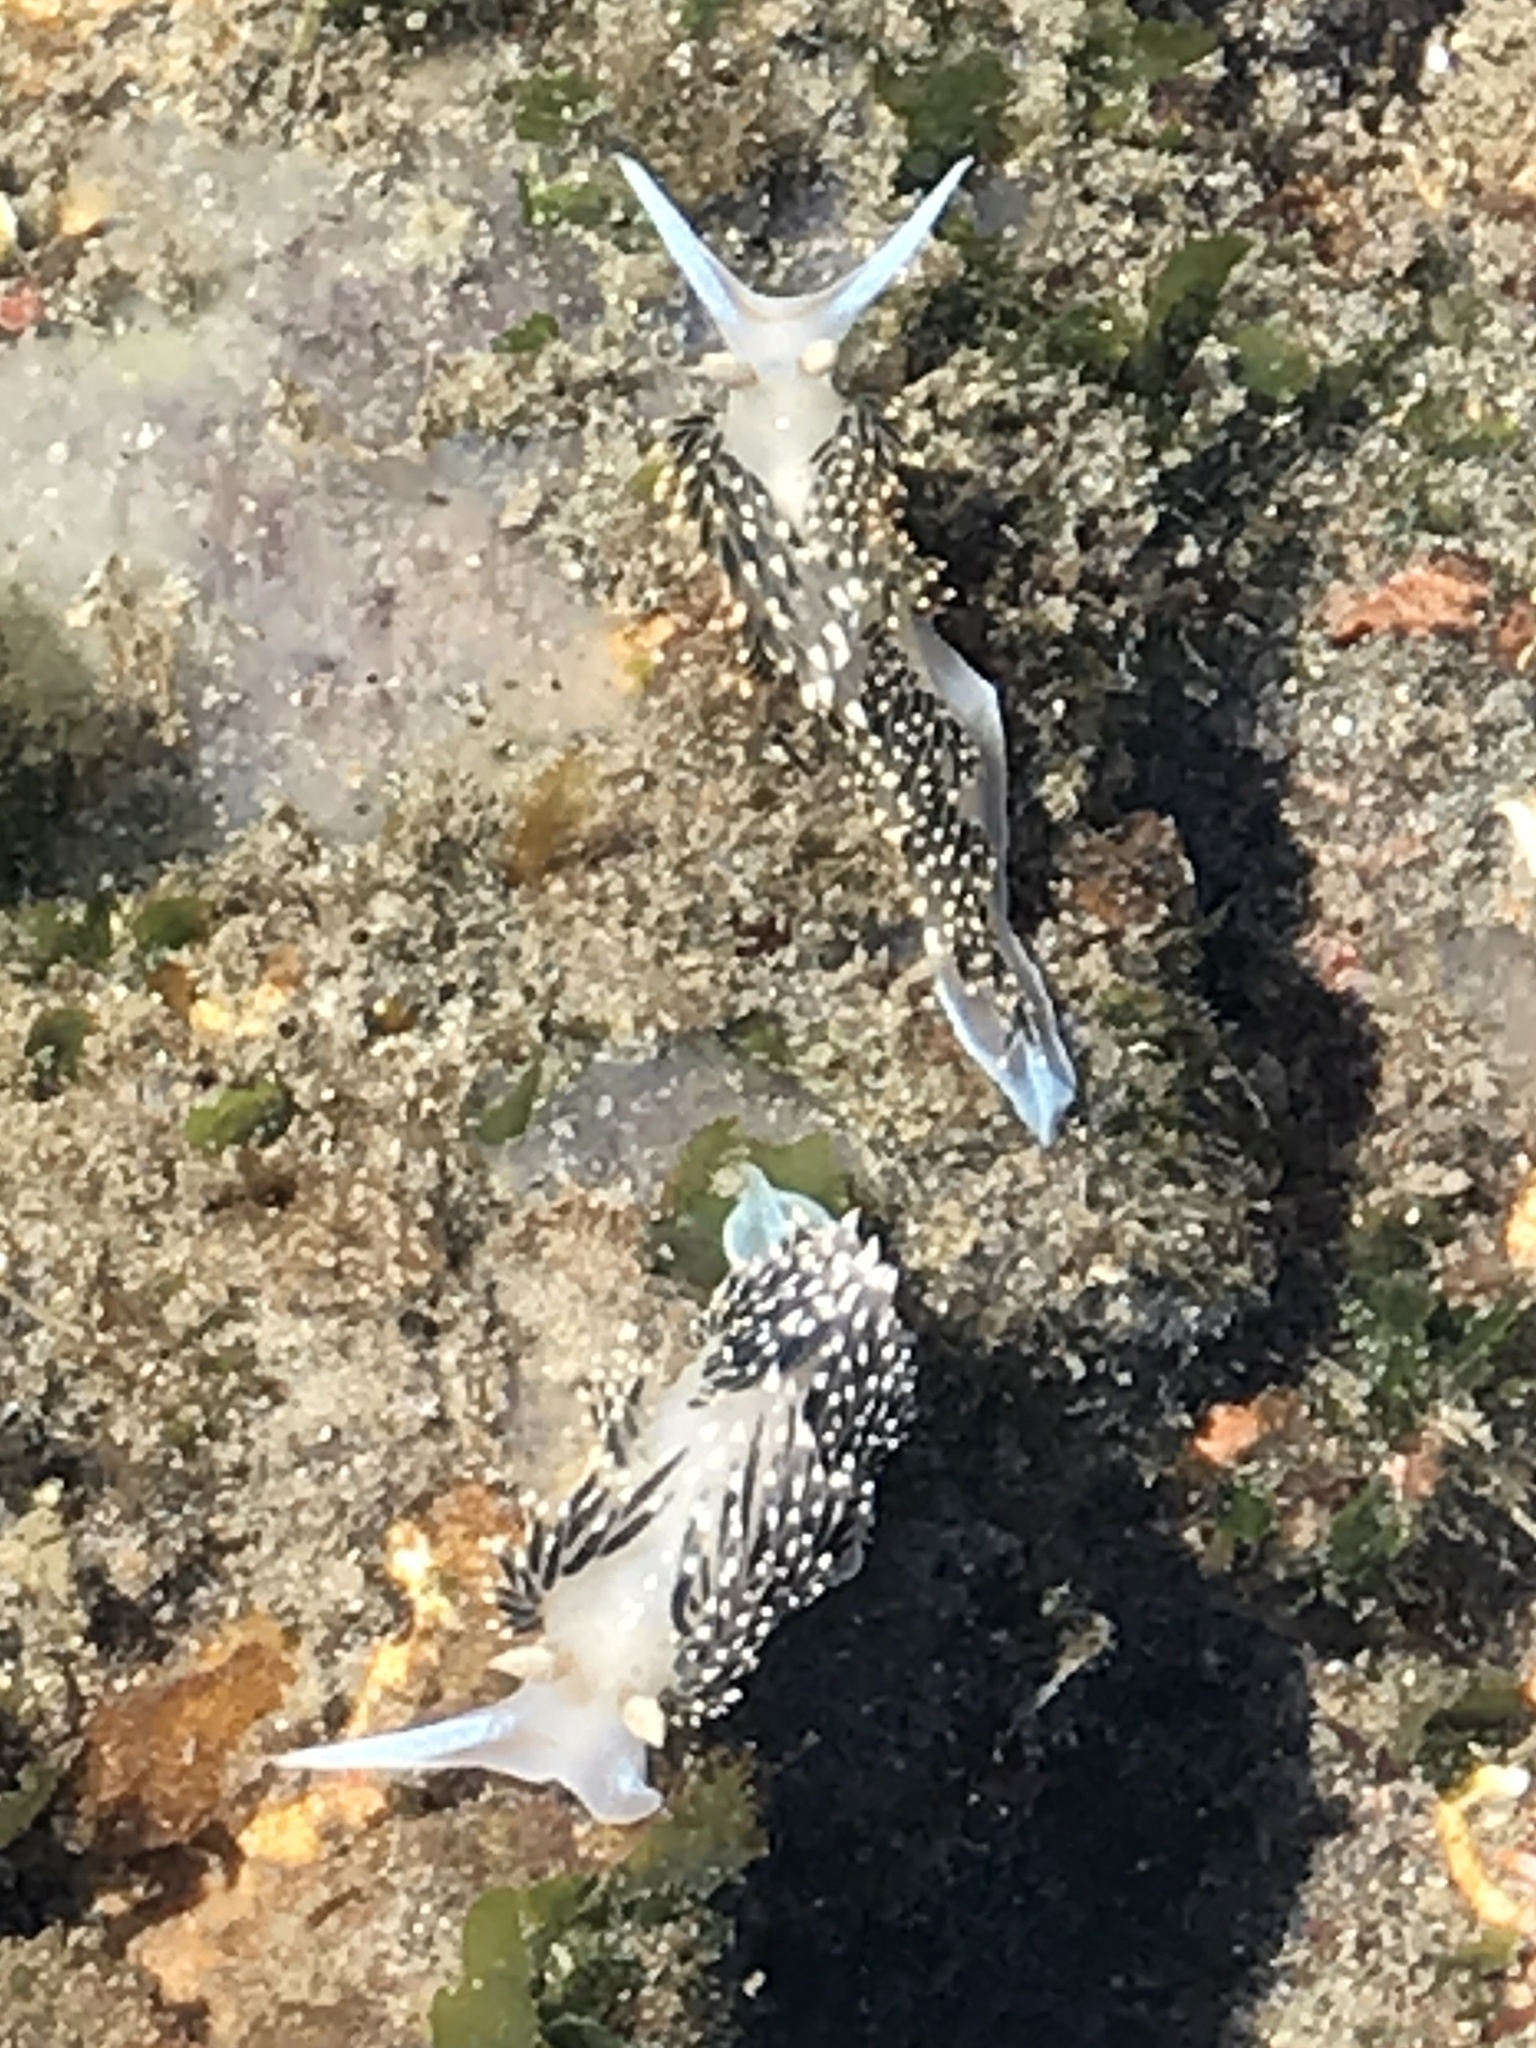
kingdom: Animalia
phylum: Mollusca
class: Gastropoda
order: Nudibranchia
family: Facelinidae
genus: Phidiana
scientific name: Phidiana hiltoni
